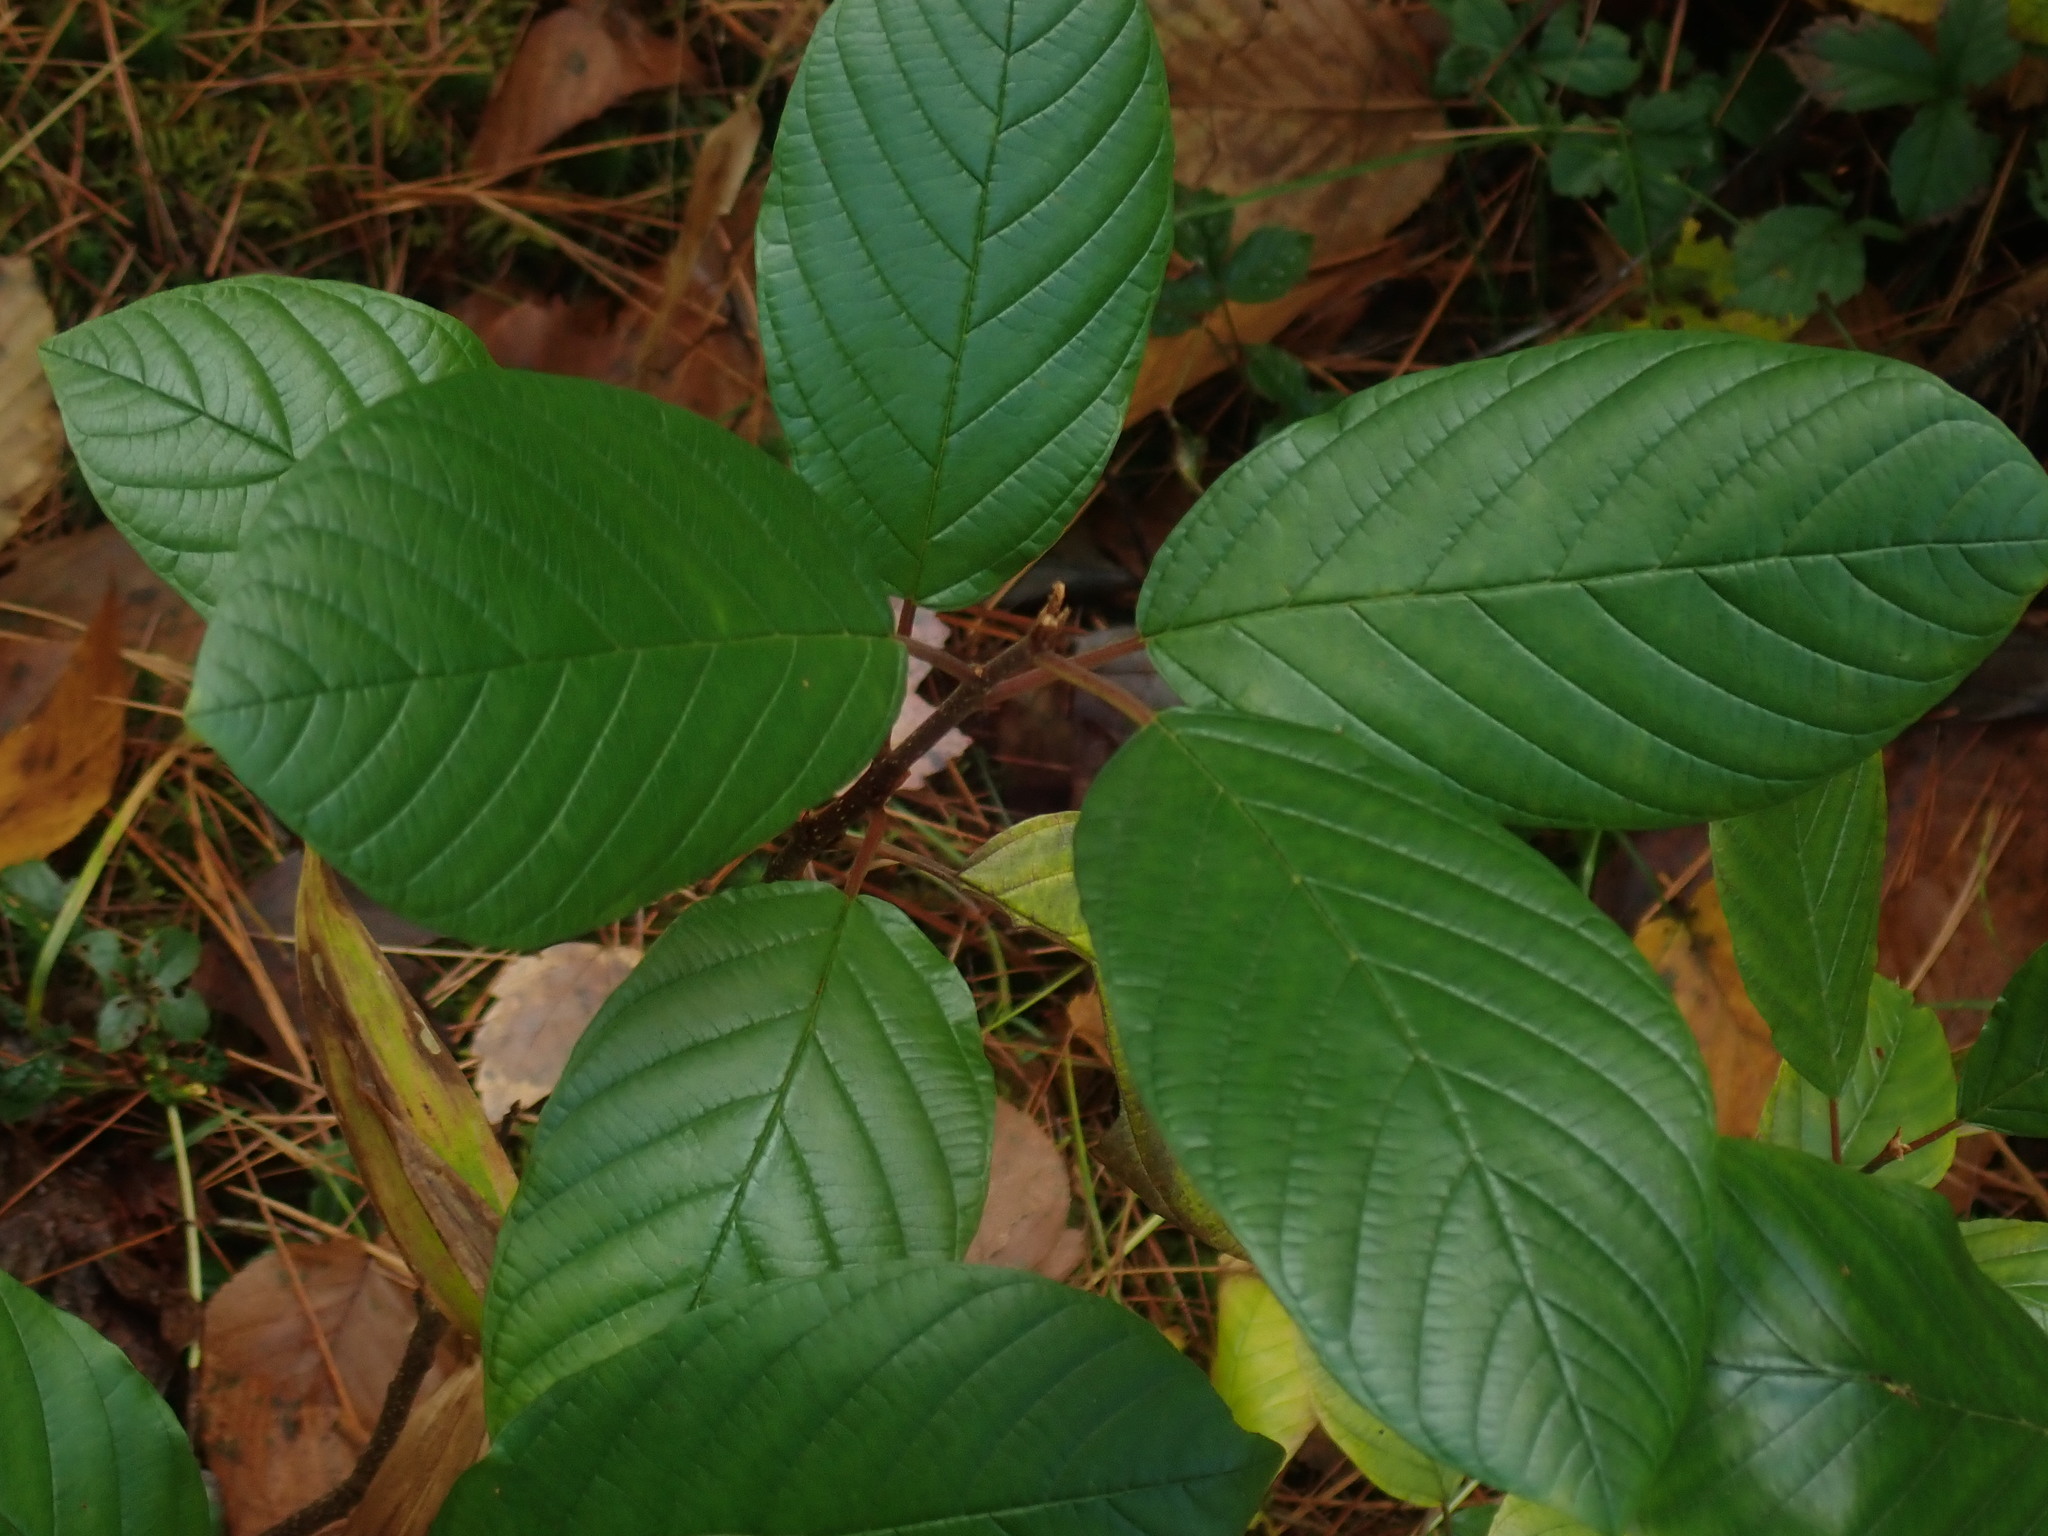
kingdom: Plantae
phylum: Tracheophyta
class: Magnoliopsida
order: Rosales
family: Rhamnaceae
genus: Frangula
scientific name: Frangula alnus
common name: Alder buckthorn
